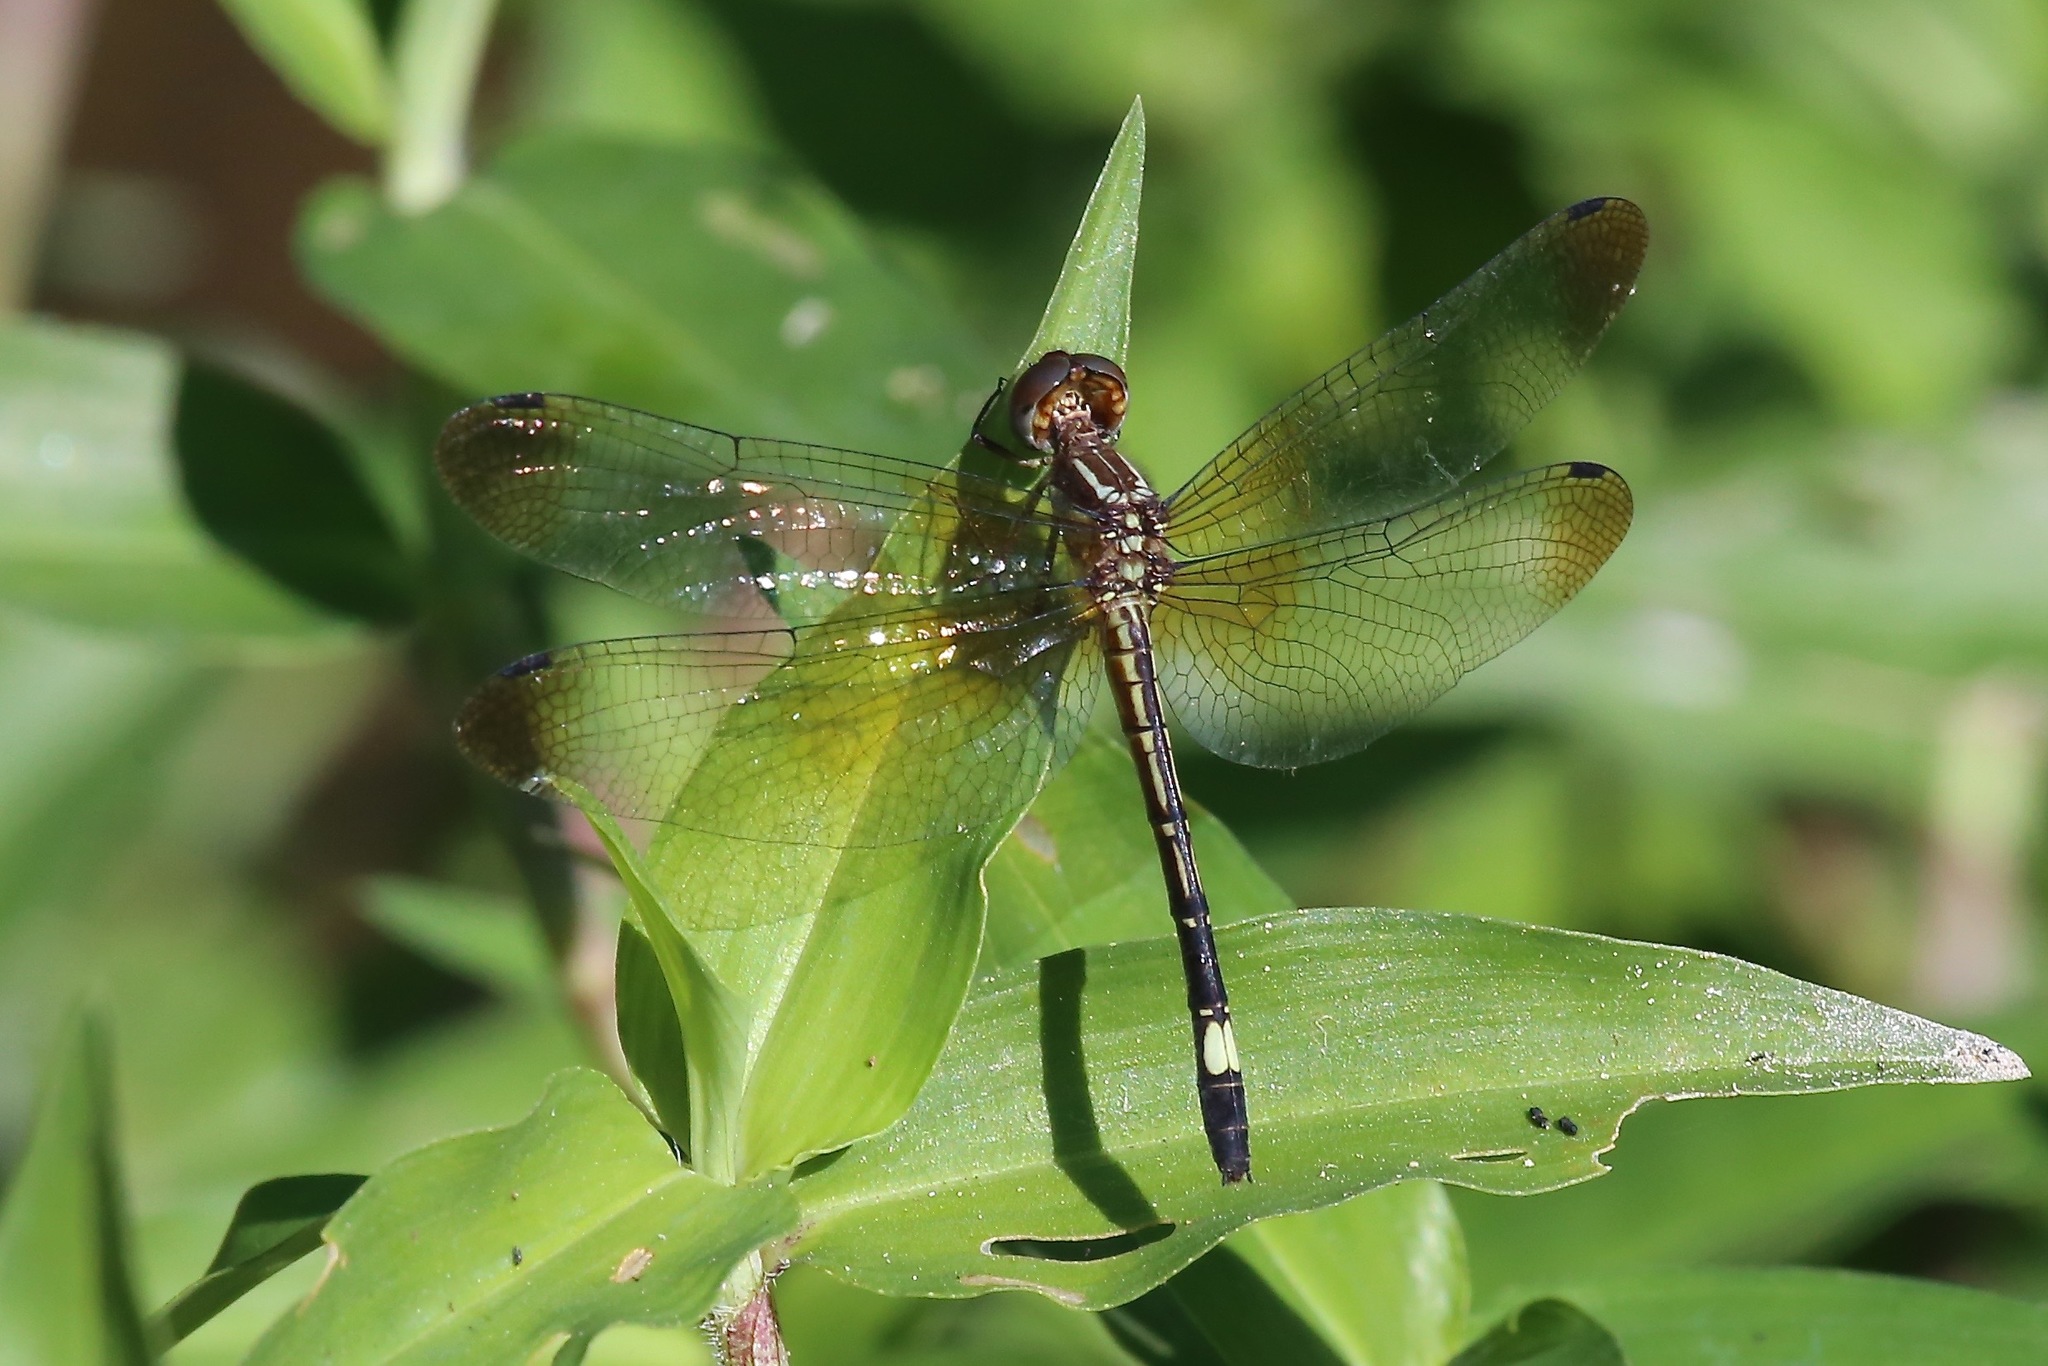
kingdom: Animalia
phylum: Arthropoda
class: Insecta
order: Odonata
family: Libellulidae
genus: Macrothemis
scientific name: Macrothemis ultima
